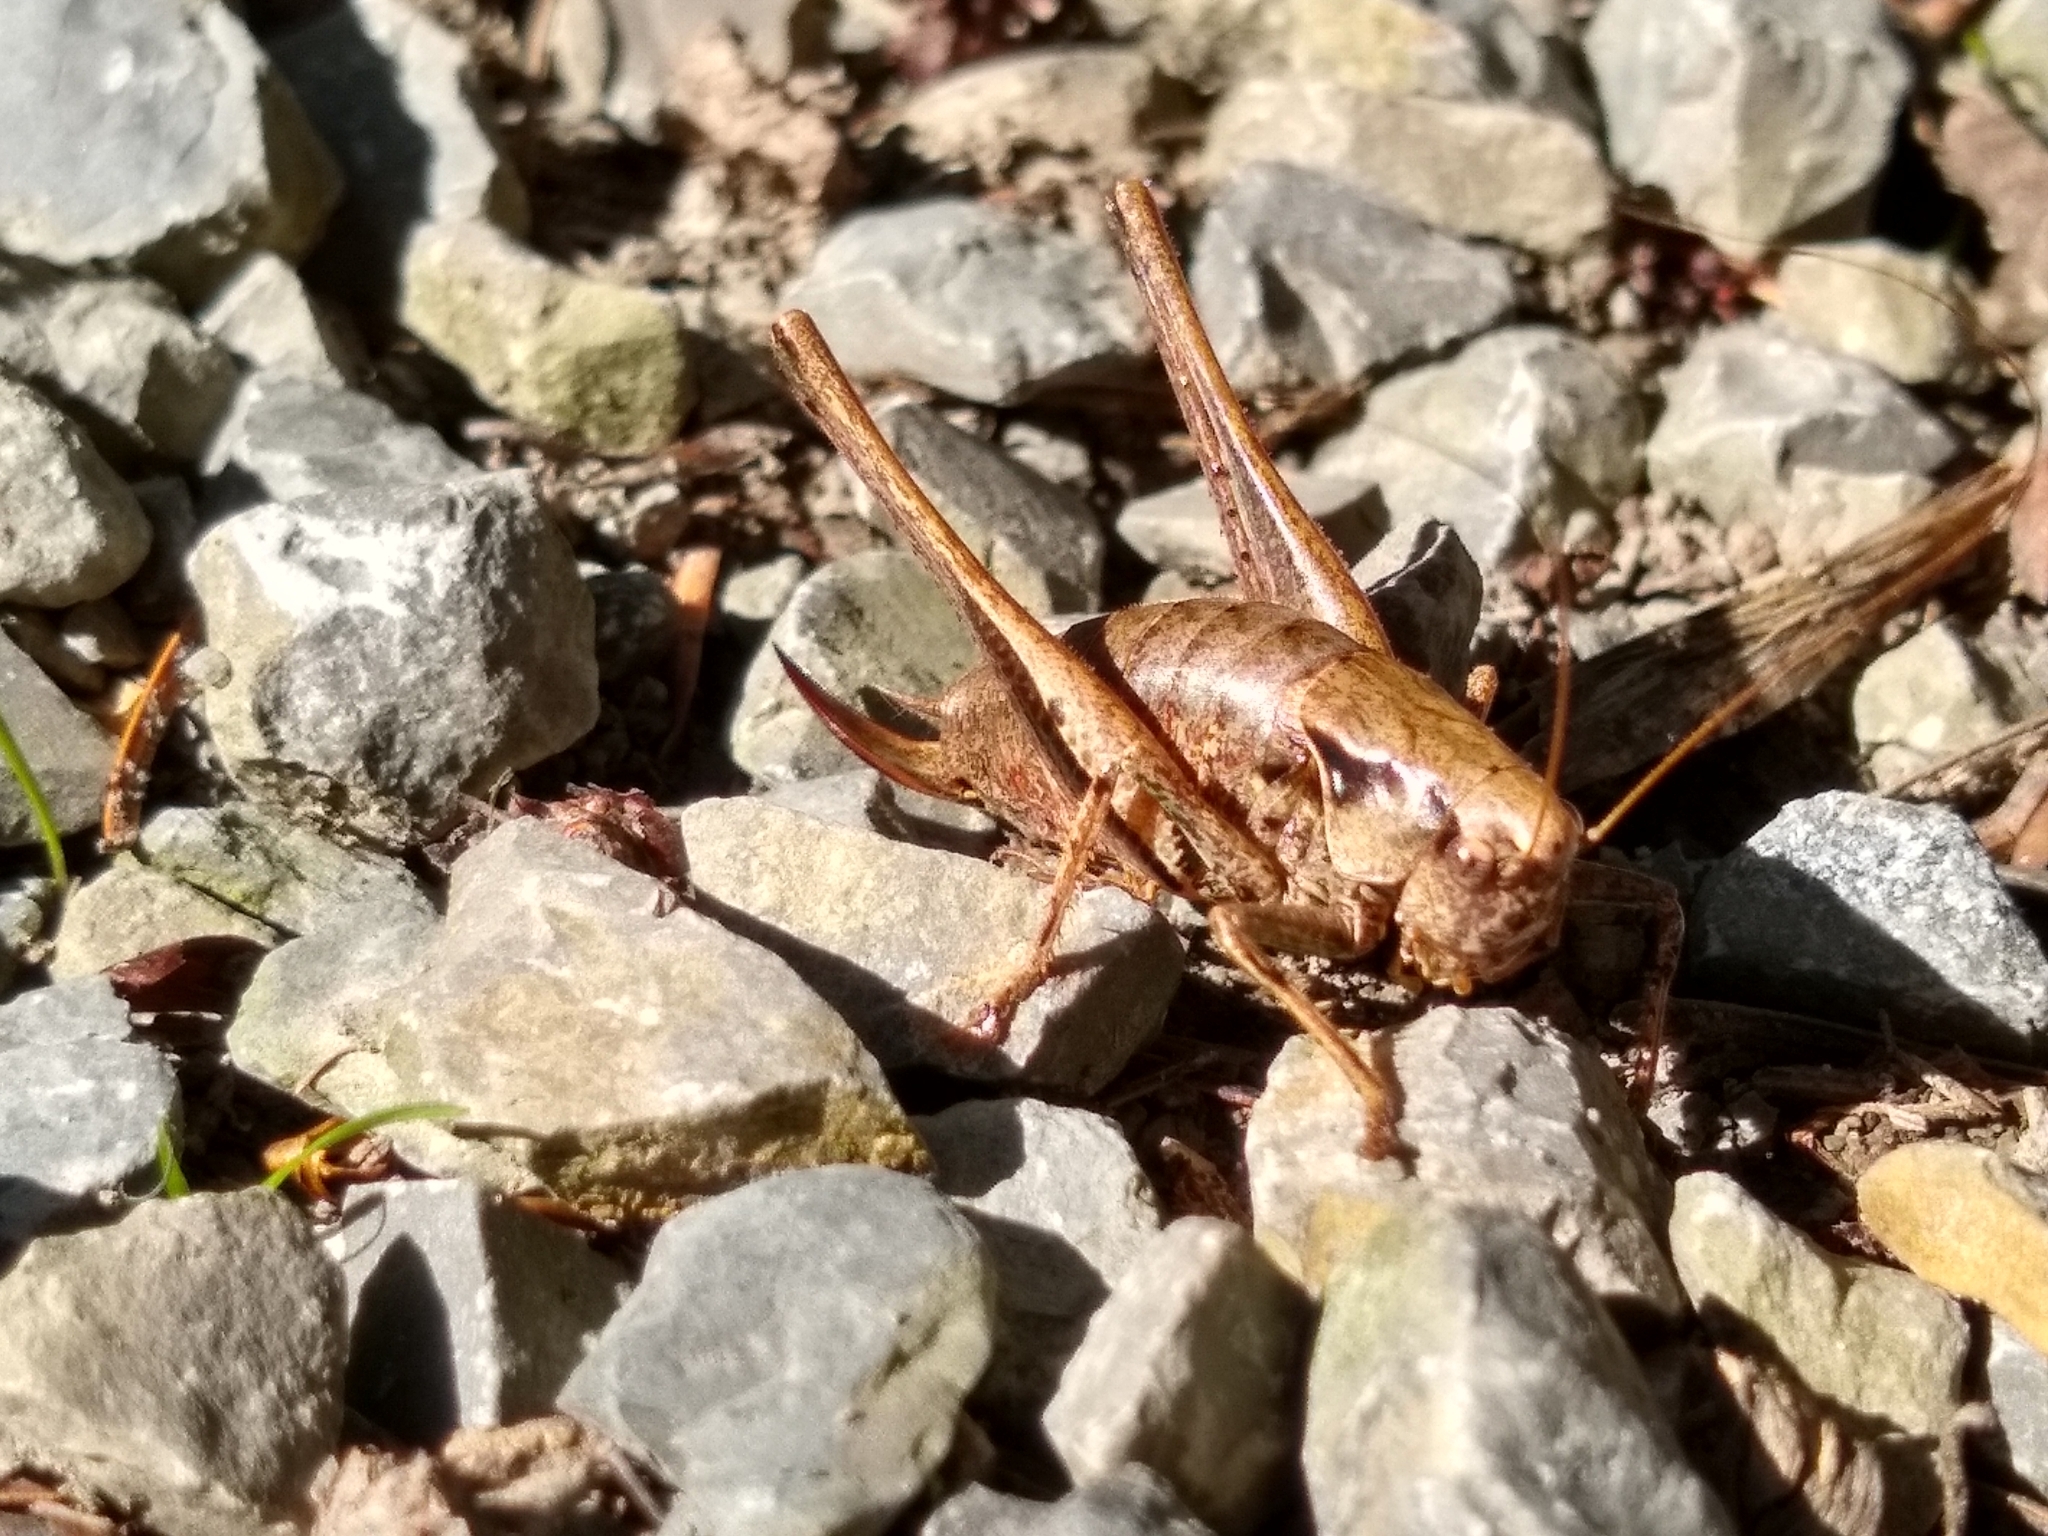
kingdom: Animalia
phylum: Arthropoda
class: Insecta
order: Orthoptera
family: Tettigoniidae
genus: Pholidoptera
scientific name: Pholidoptera griseoaptera
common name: Dark bush-cricket
